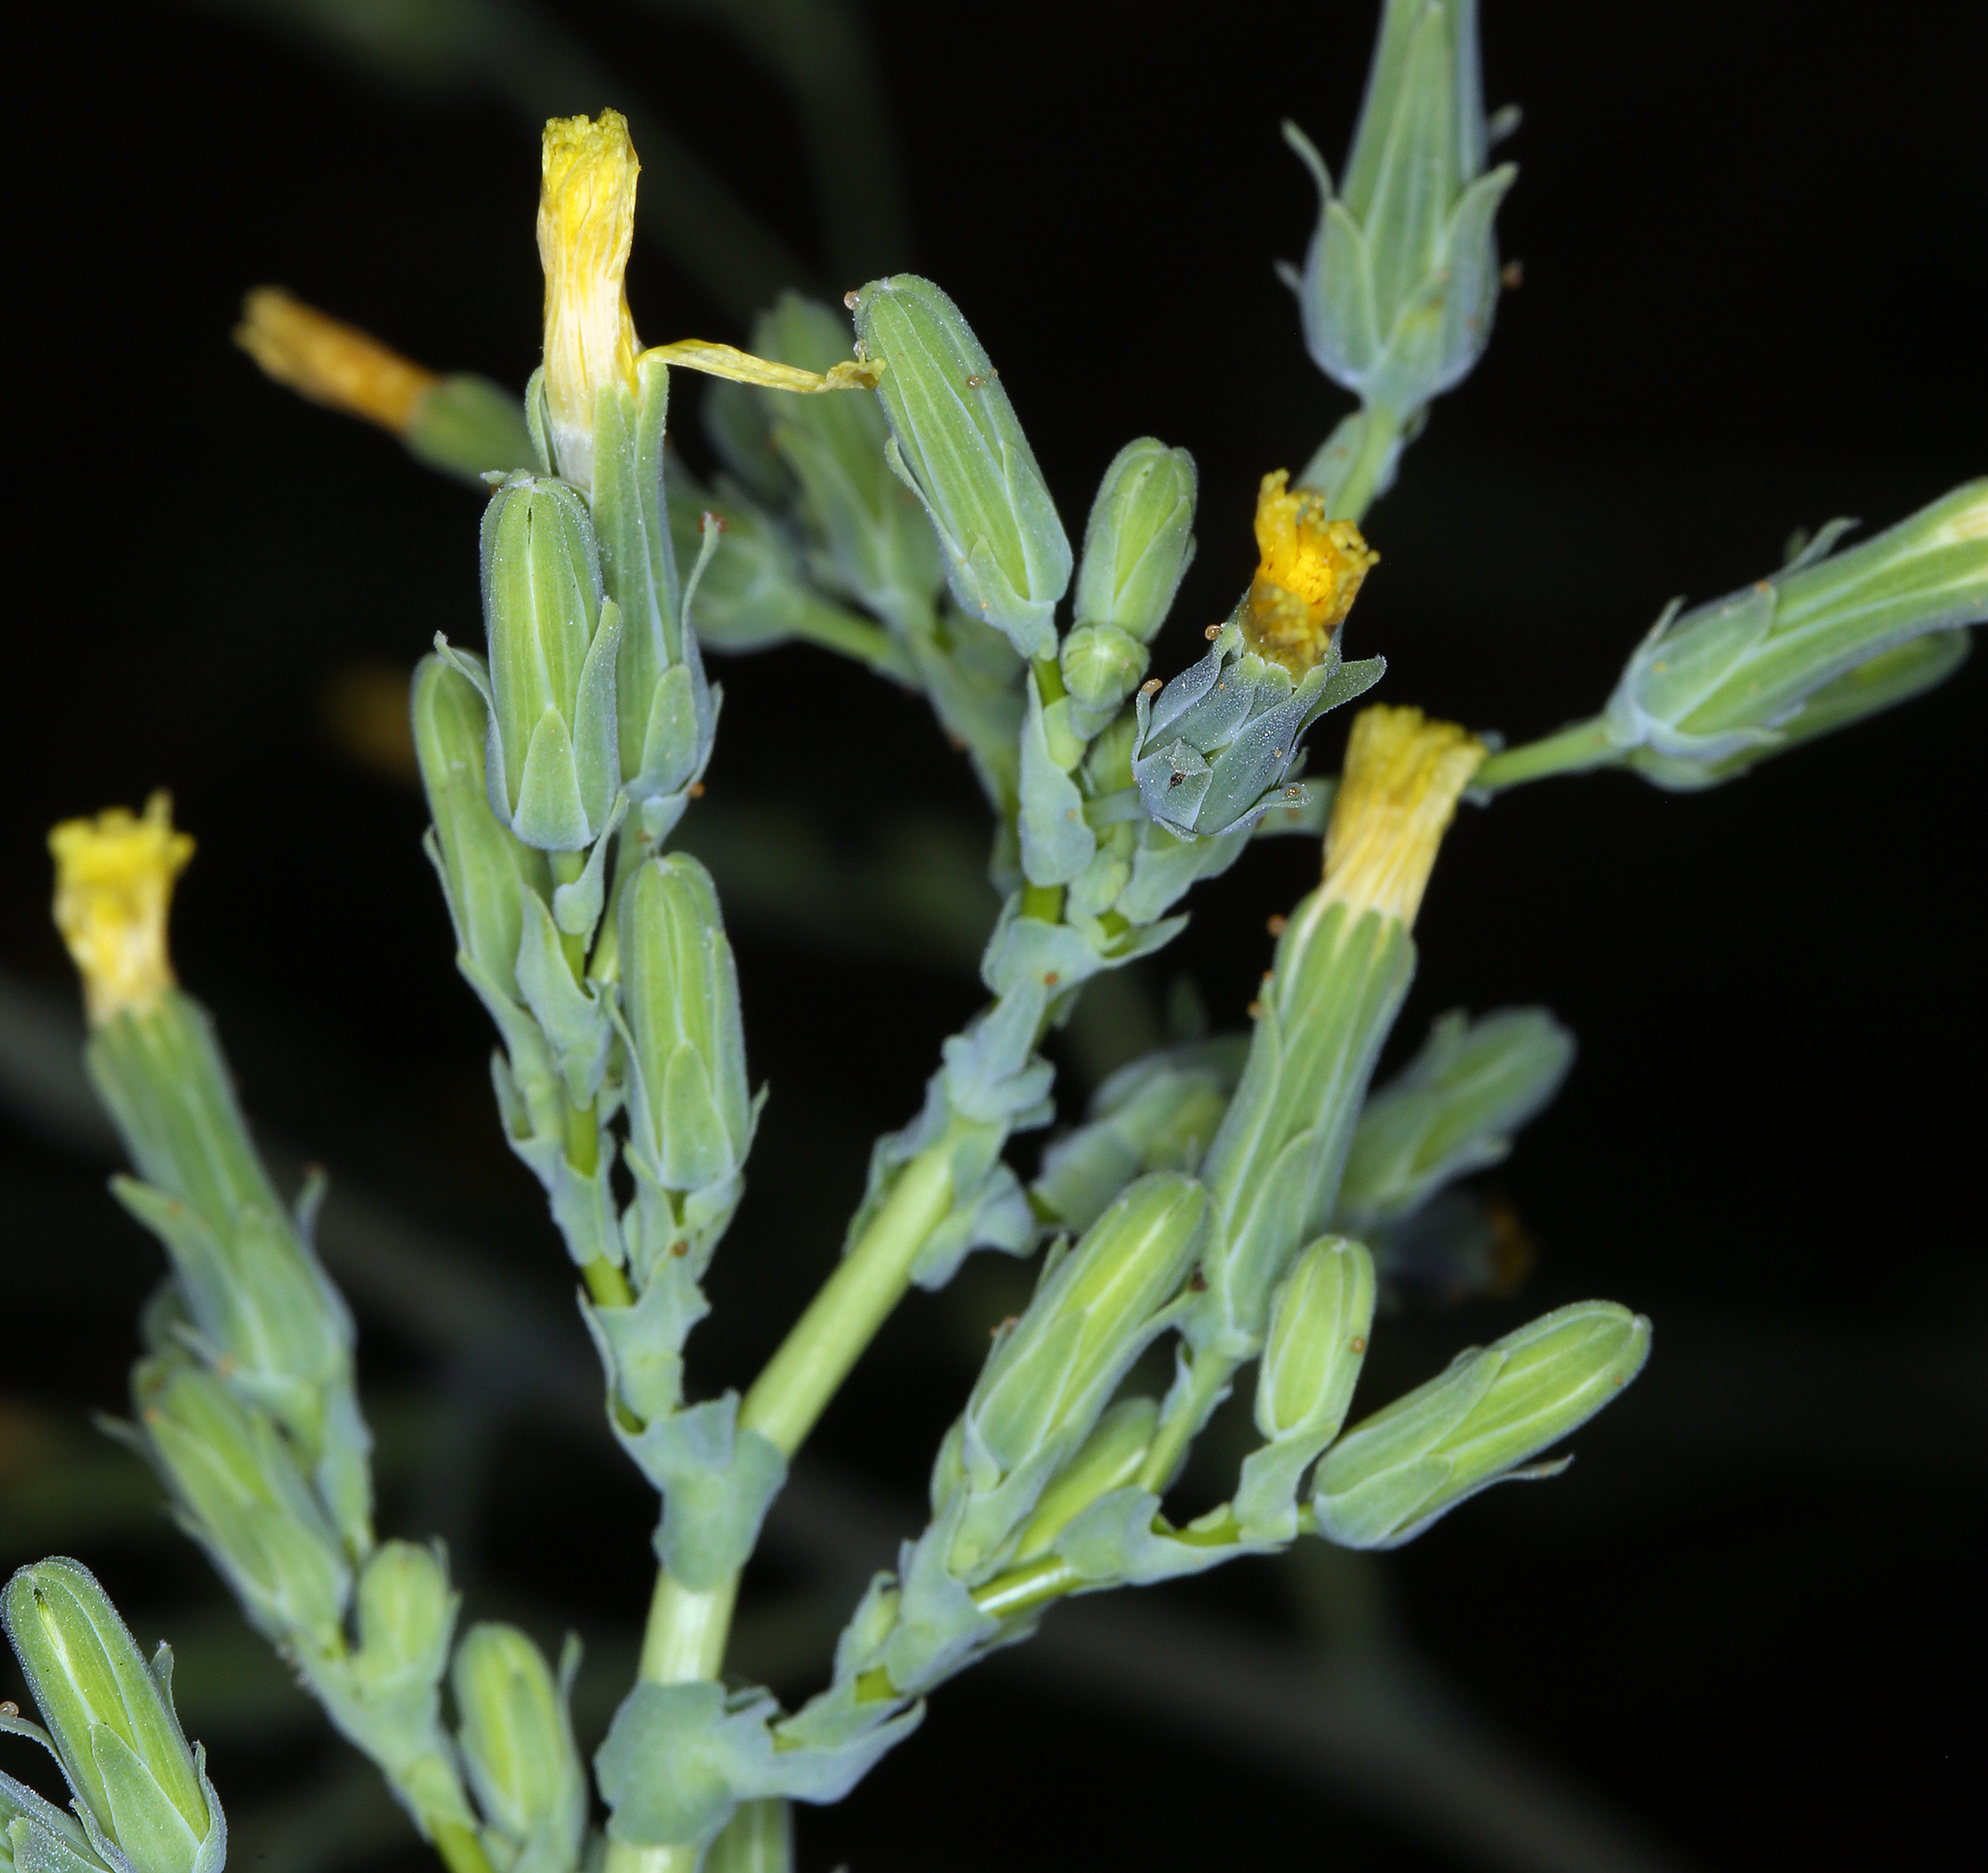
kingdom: Plantae
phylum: Tracheophyta
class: Magnoliopsida
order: Asterales
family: Asteraceae
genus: Lactuca
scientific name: Lactuca virosa
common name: Great lettuce
